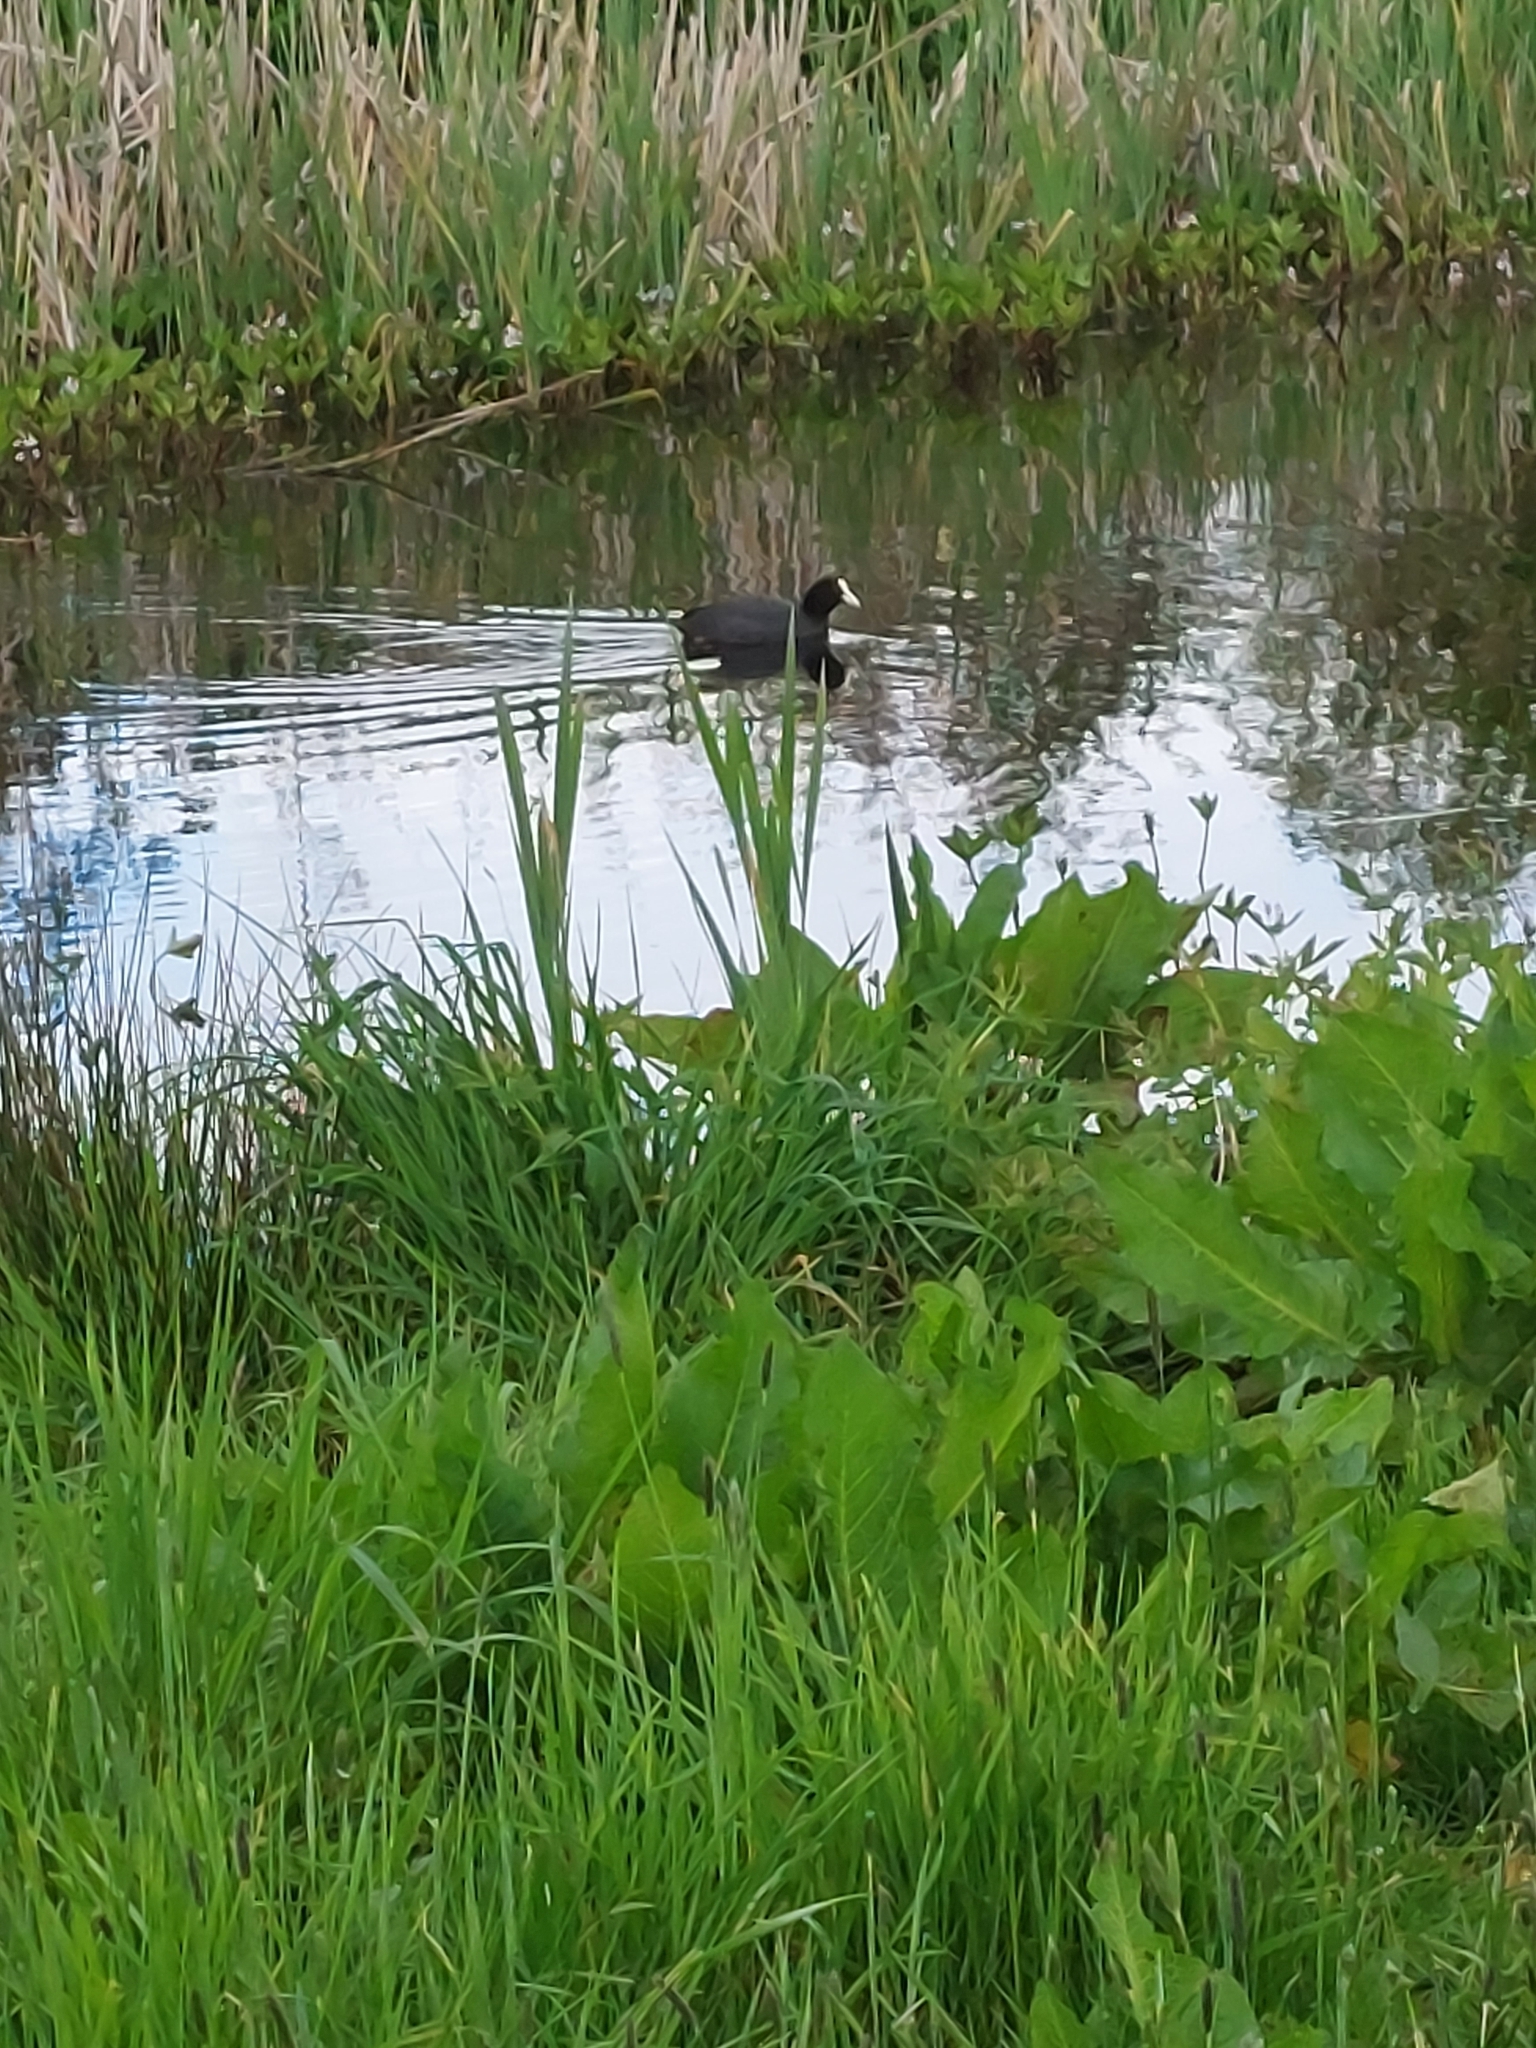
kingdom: Animalia
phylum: Chordata
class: Aves
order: Gruiformes
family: Rallidae
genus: Fulica
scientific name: Fulica atra
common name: Eurasian coot
